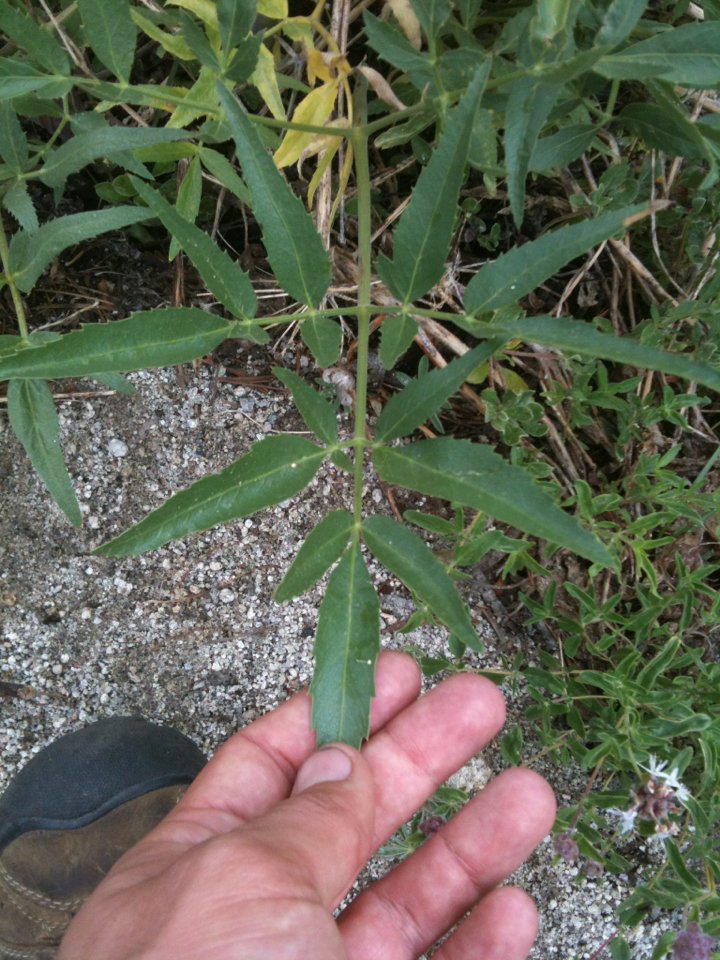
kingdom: Plantae
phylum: Tracheophyta
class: Magnoliopsida
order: Apiales
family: Apiaceae
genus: Angelica
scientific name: Angelica breweri
